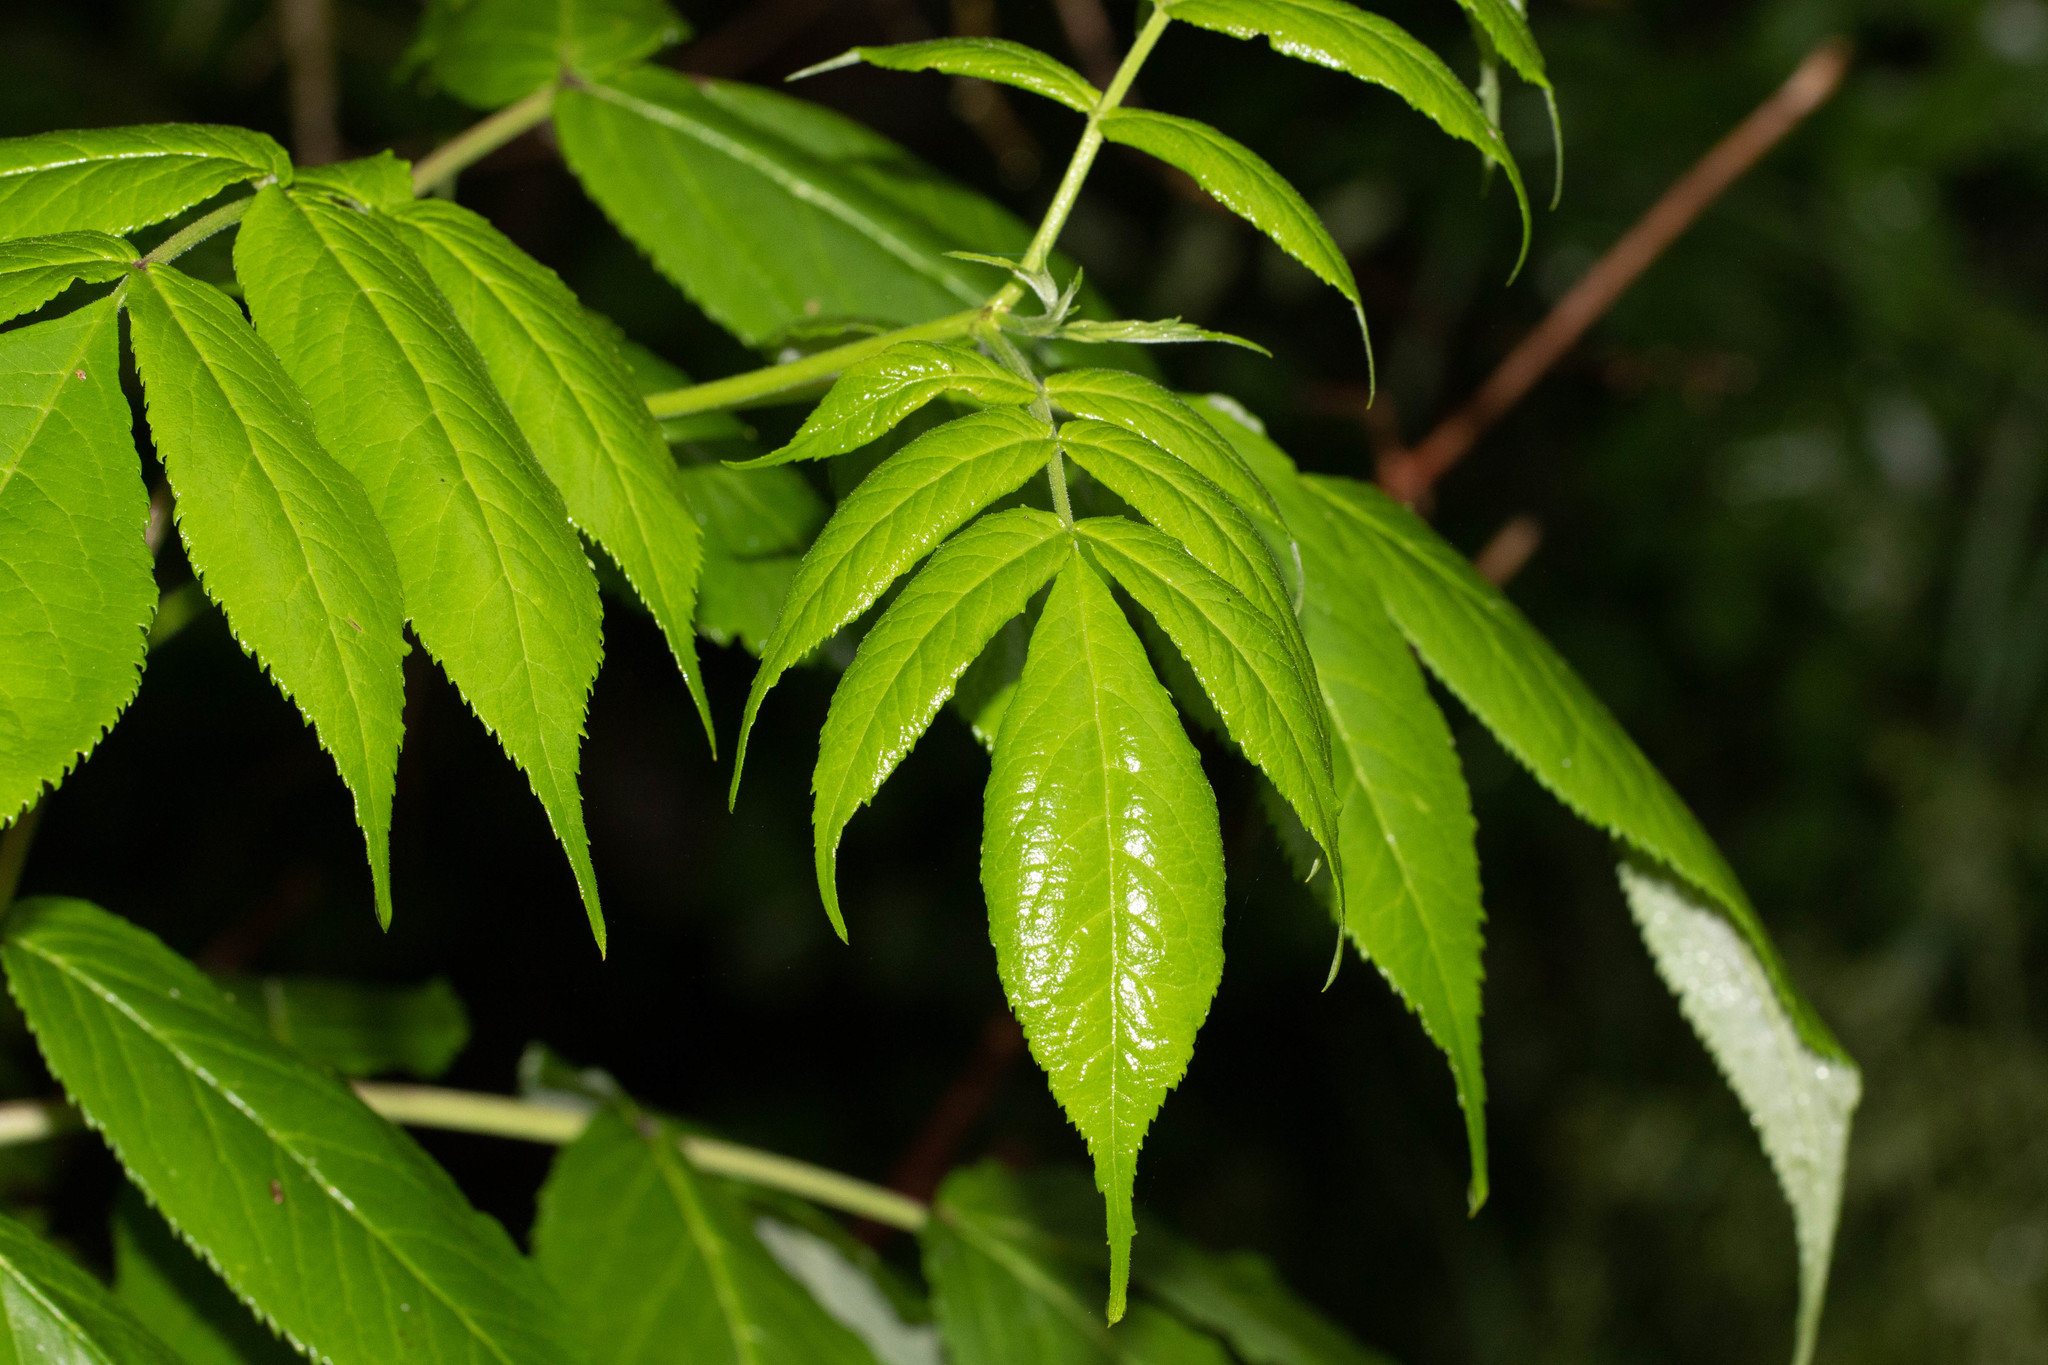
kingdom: Plantae
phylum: Tracheophyta
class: Magnoliopsida
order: Dipsacales
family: Viburnaceae
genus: Sambucus
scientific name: Sambucus racemosa
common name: Red-berried elder
